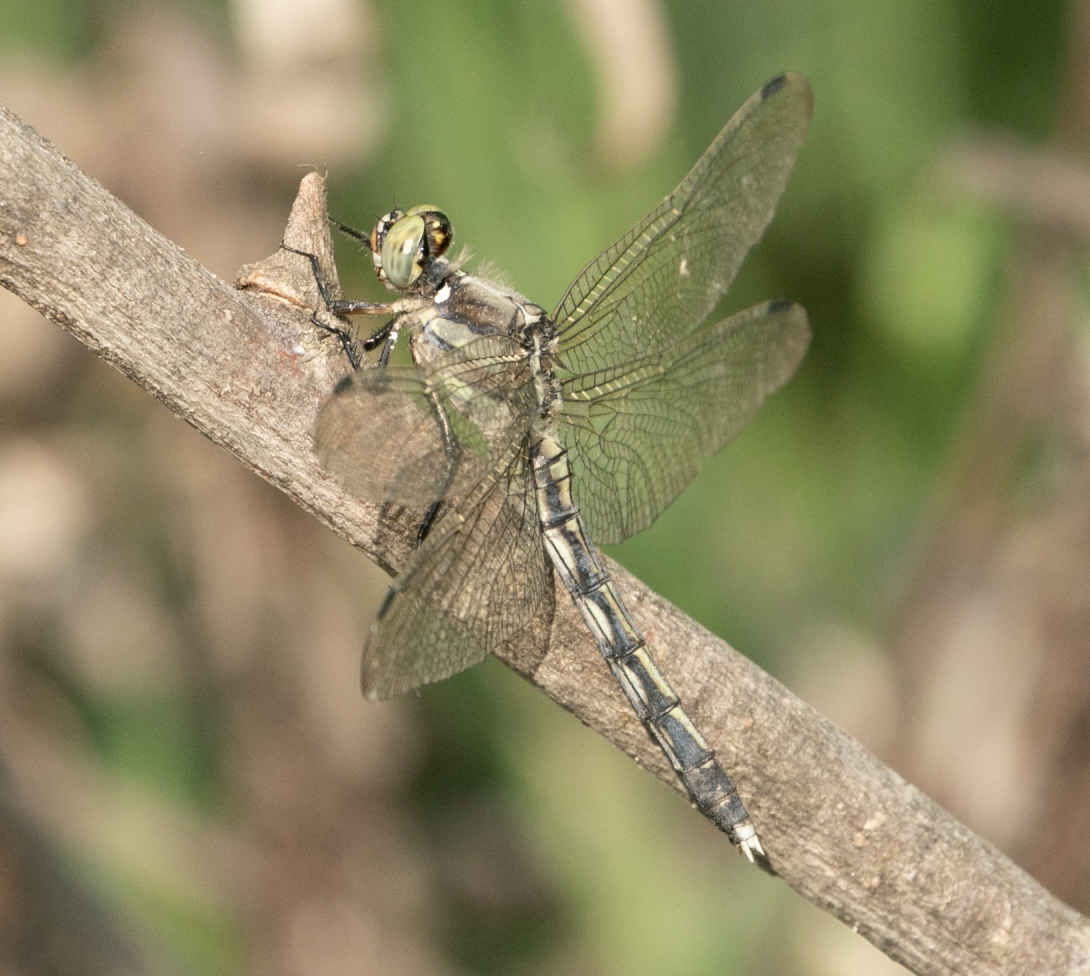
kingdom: Animalia
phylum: Arthropoda
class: Insecta
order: Odonata
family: Libellulidae
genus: Orthetrum
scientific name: Orthetrum albistylum
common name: White-tailed skimmer
